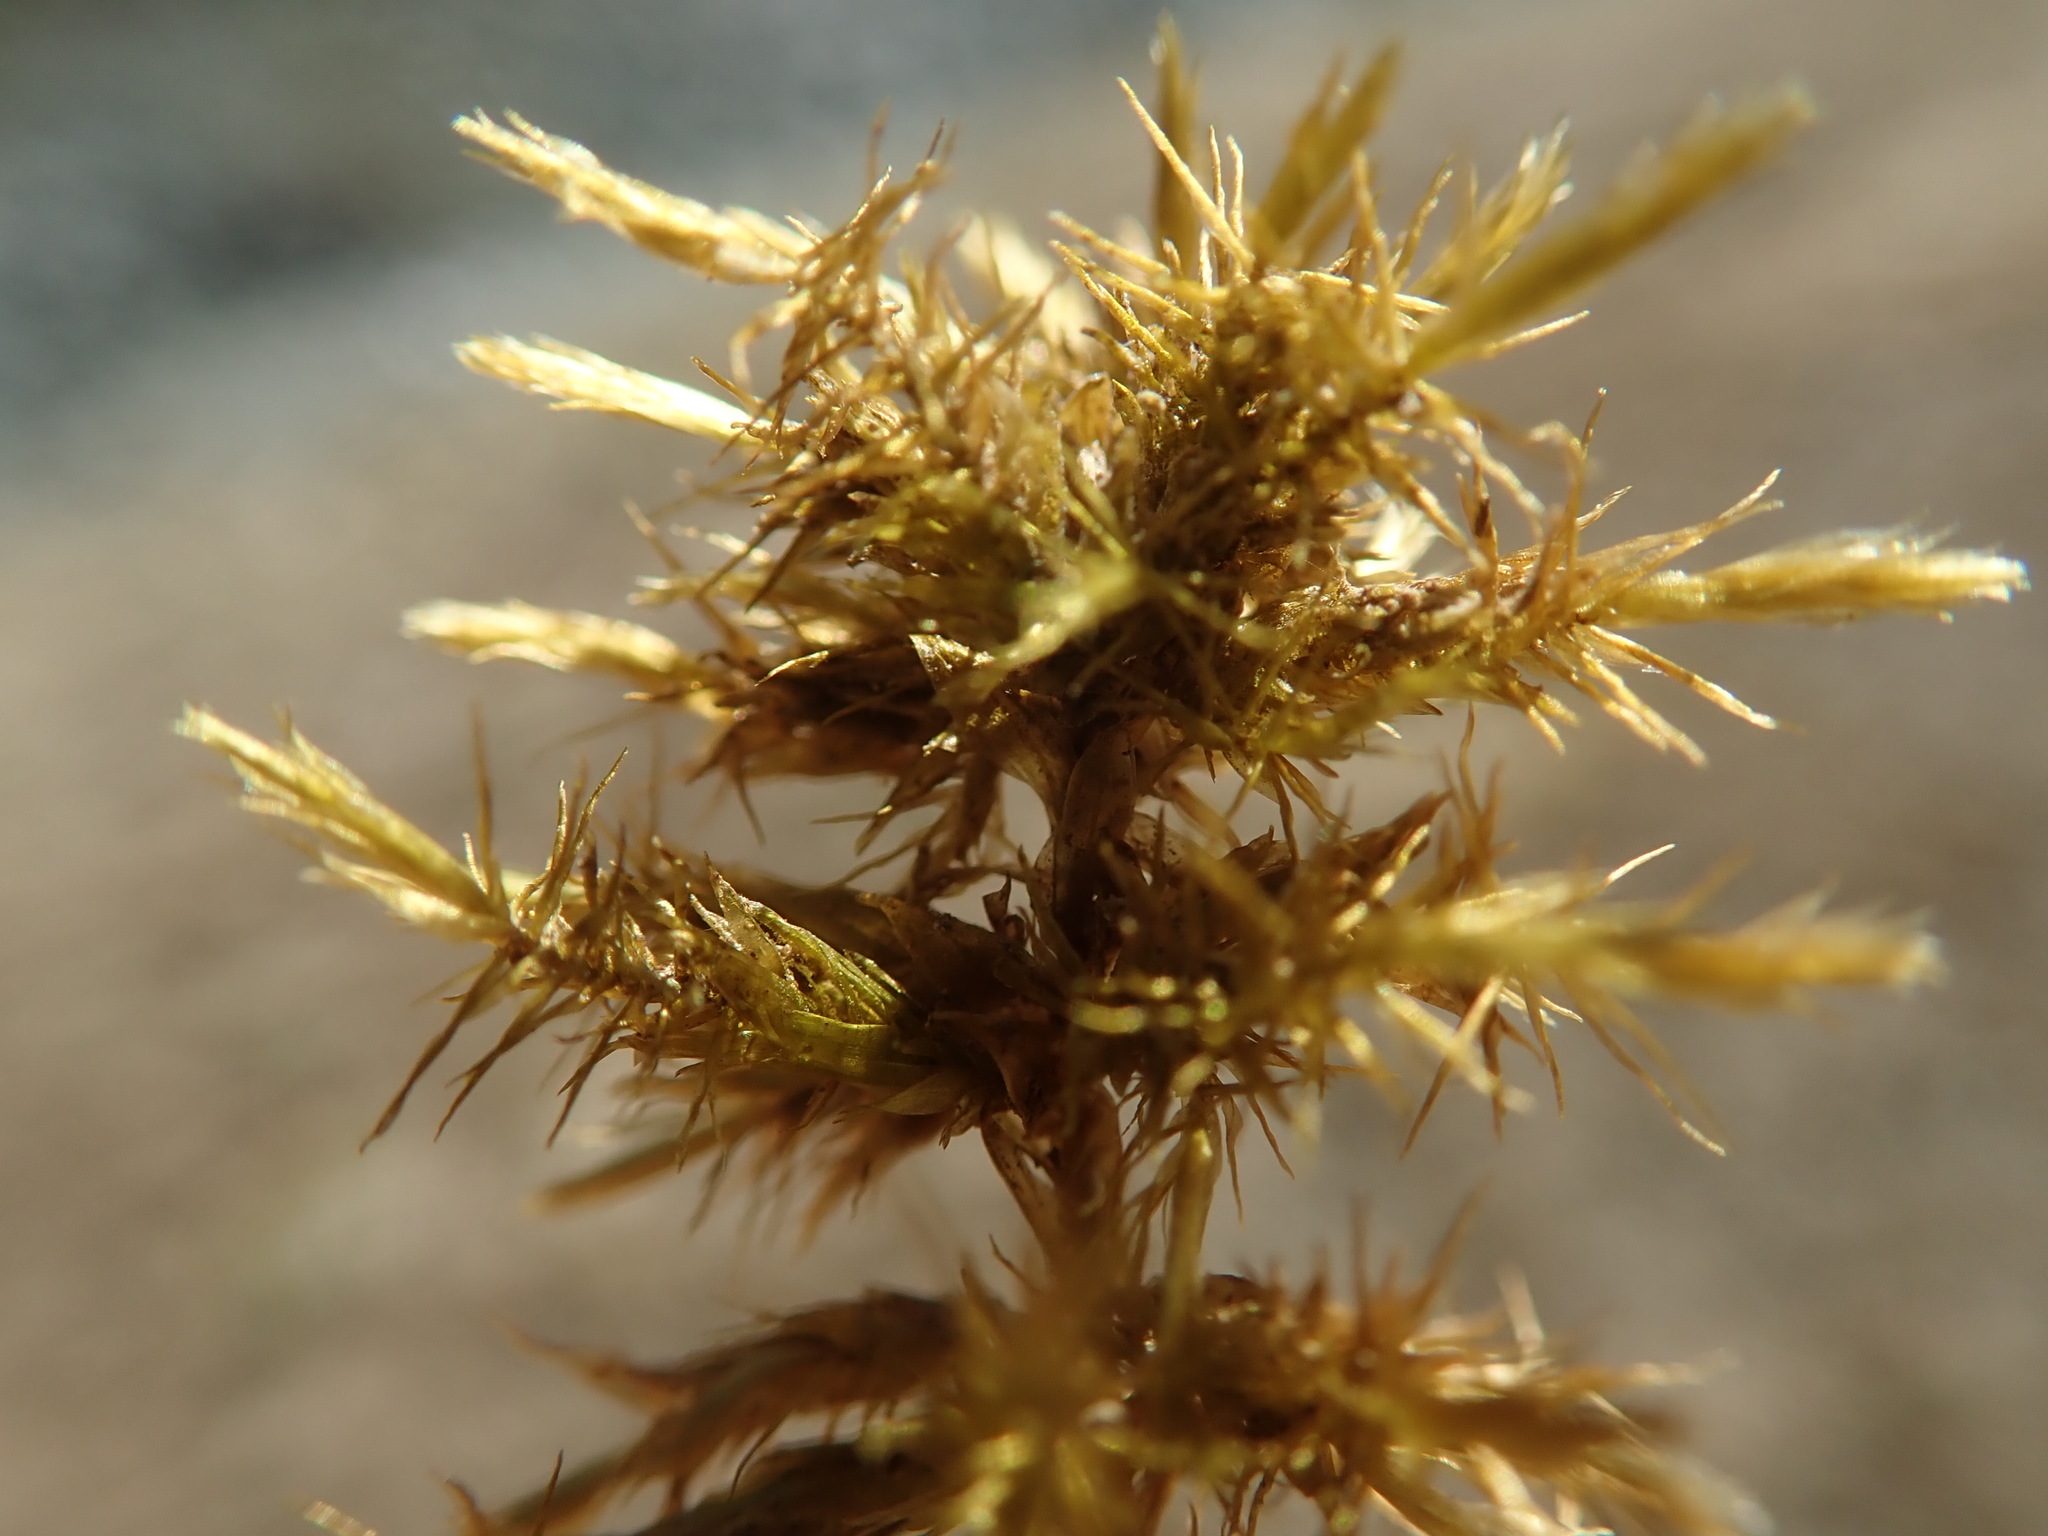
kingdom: Plantae
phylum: Bryophyta
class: Bryopsida
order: Hypnales
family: Calliergonaceae
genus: Calliergon
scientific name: Calliergon giganteum
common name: Giant spear moss
